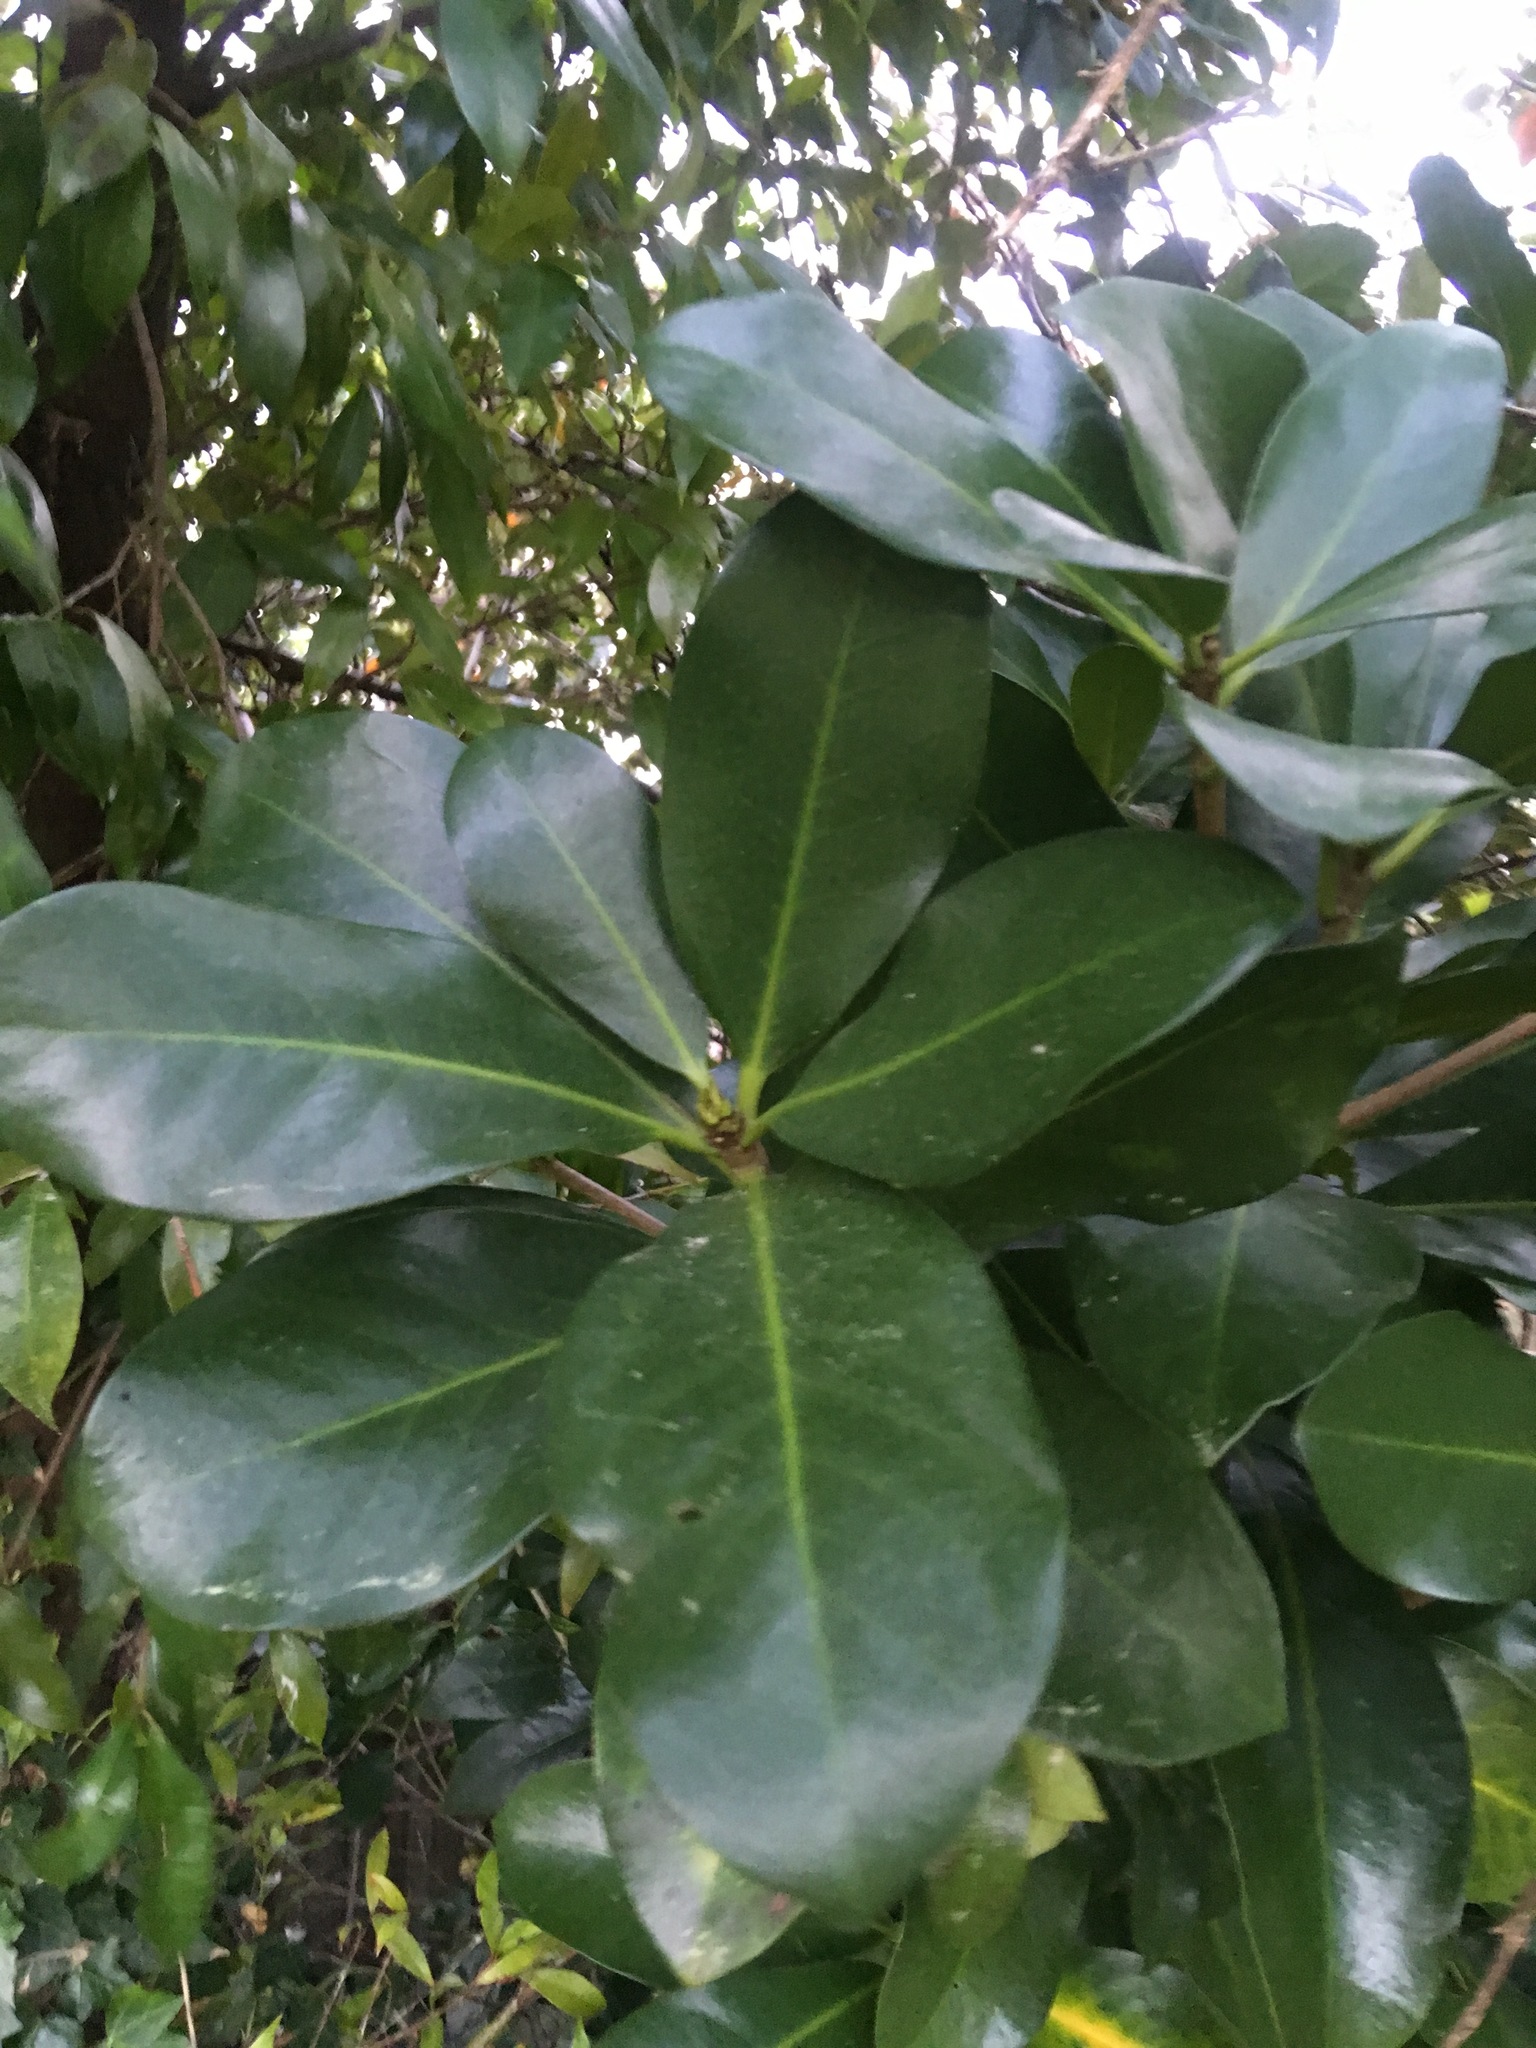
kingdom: Plantae
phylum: Tracheophyta
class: Magnoliopsida
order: Cucurbitales
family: Corynocarpaceae
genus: Corynocarpus
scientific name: Corynocarpus laevigatus
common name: New zealand laurel
